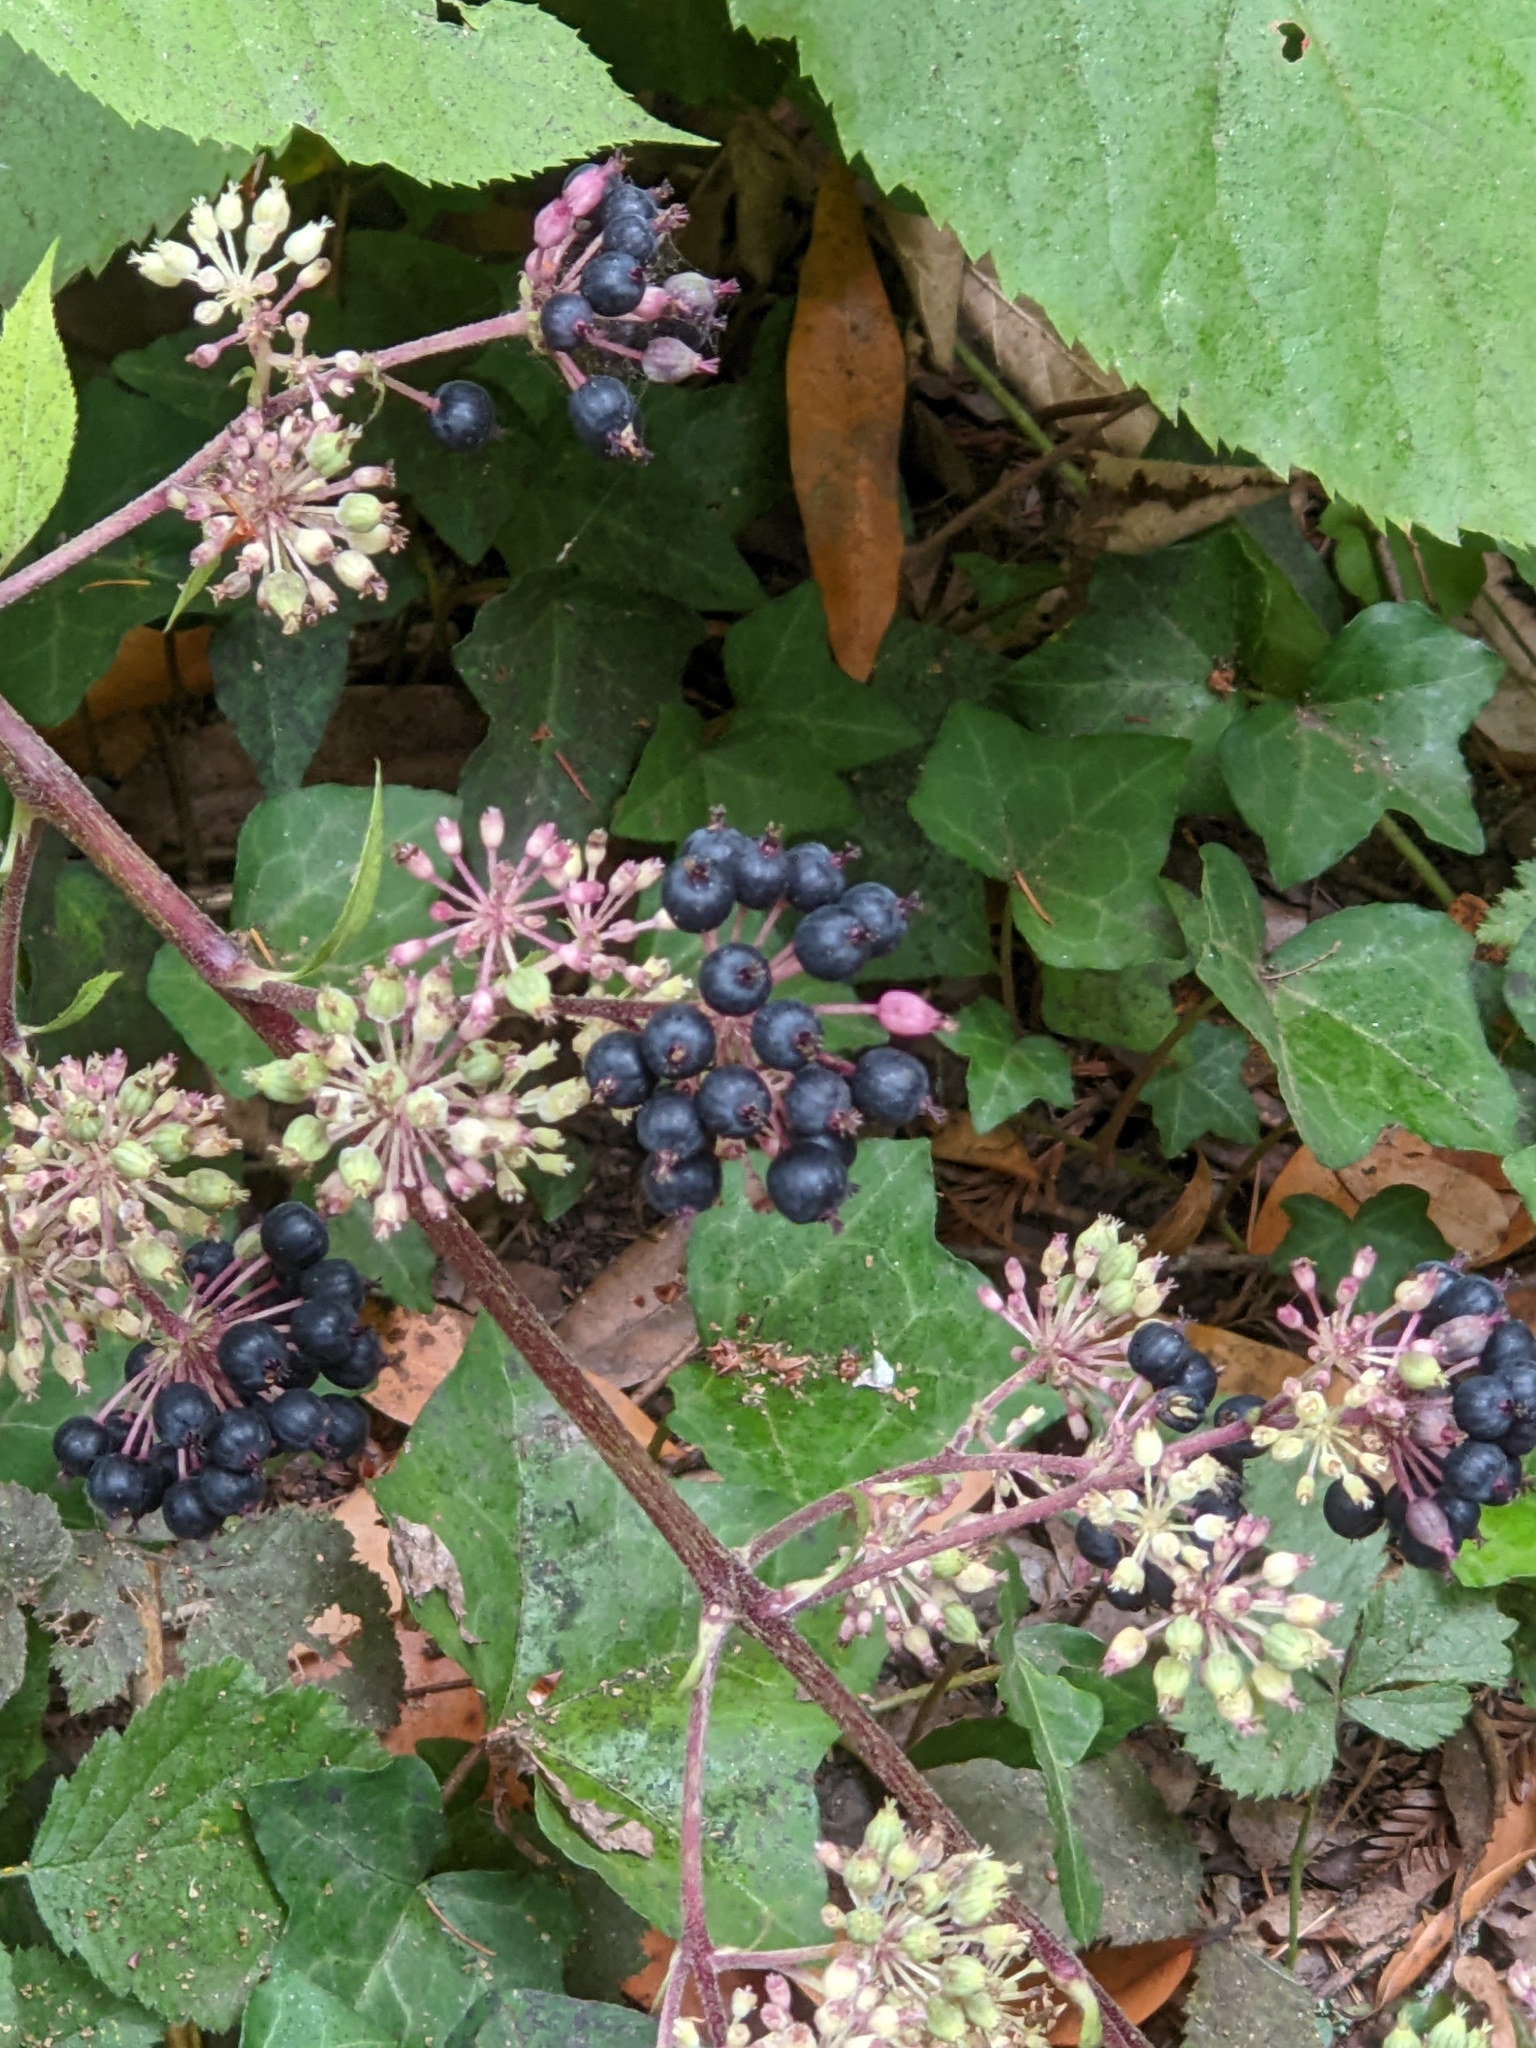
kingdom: Plantae
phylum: Tracheophyta
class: Magnoliopsida
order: Apiales
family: Araliaceae
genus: Aralia
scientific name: Aralia californica
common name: California-ginseng
